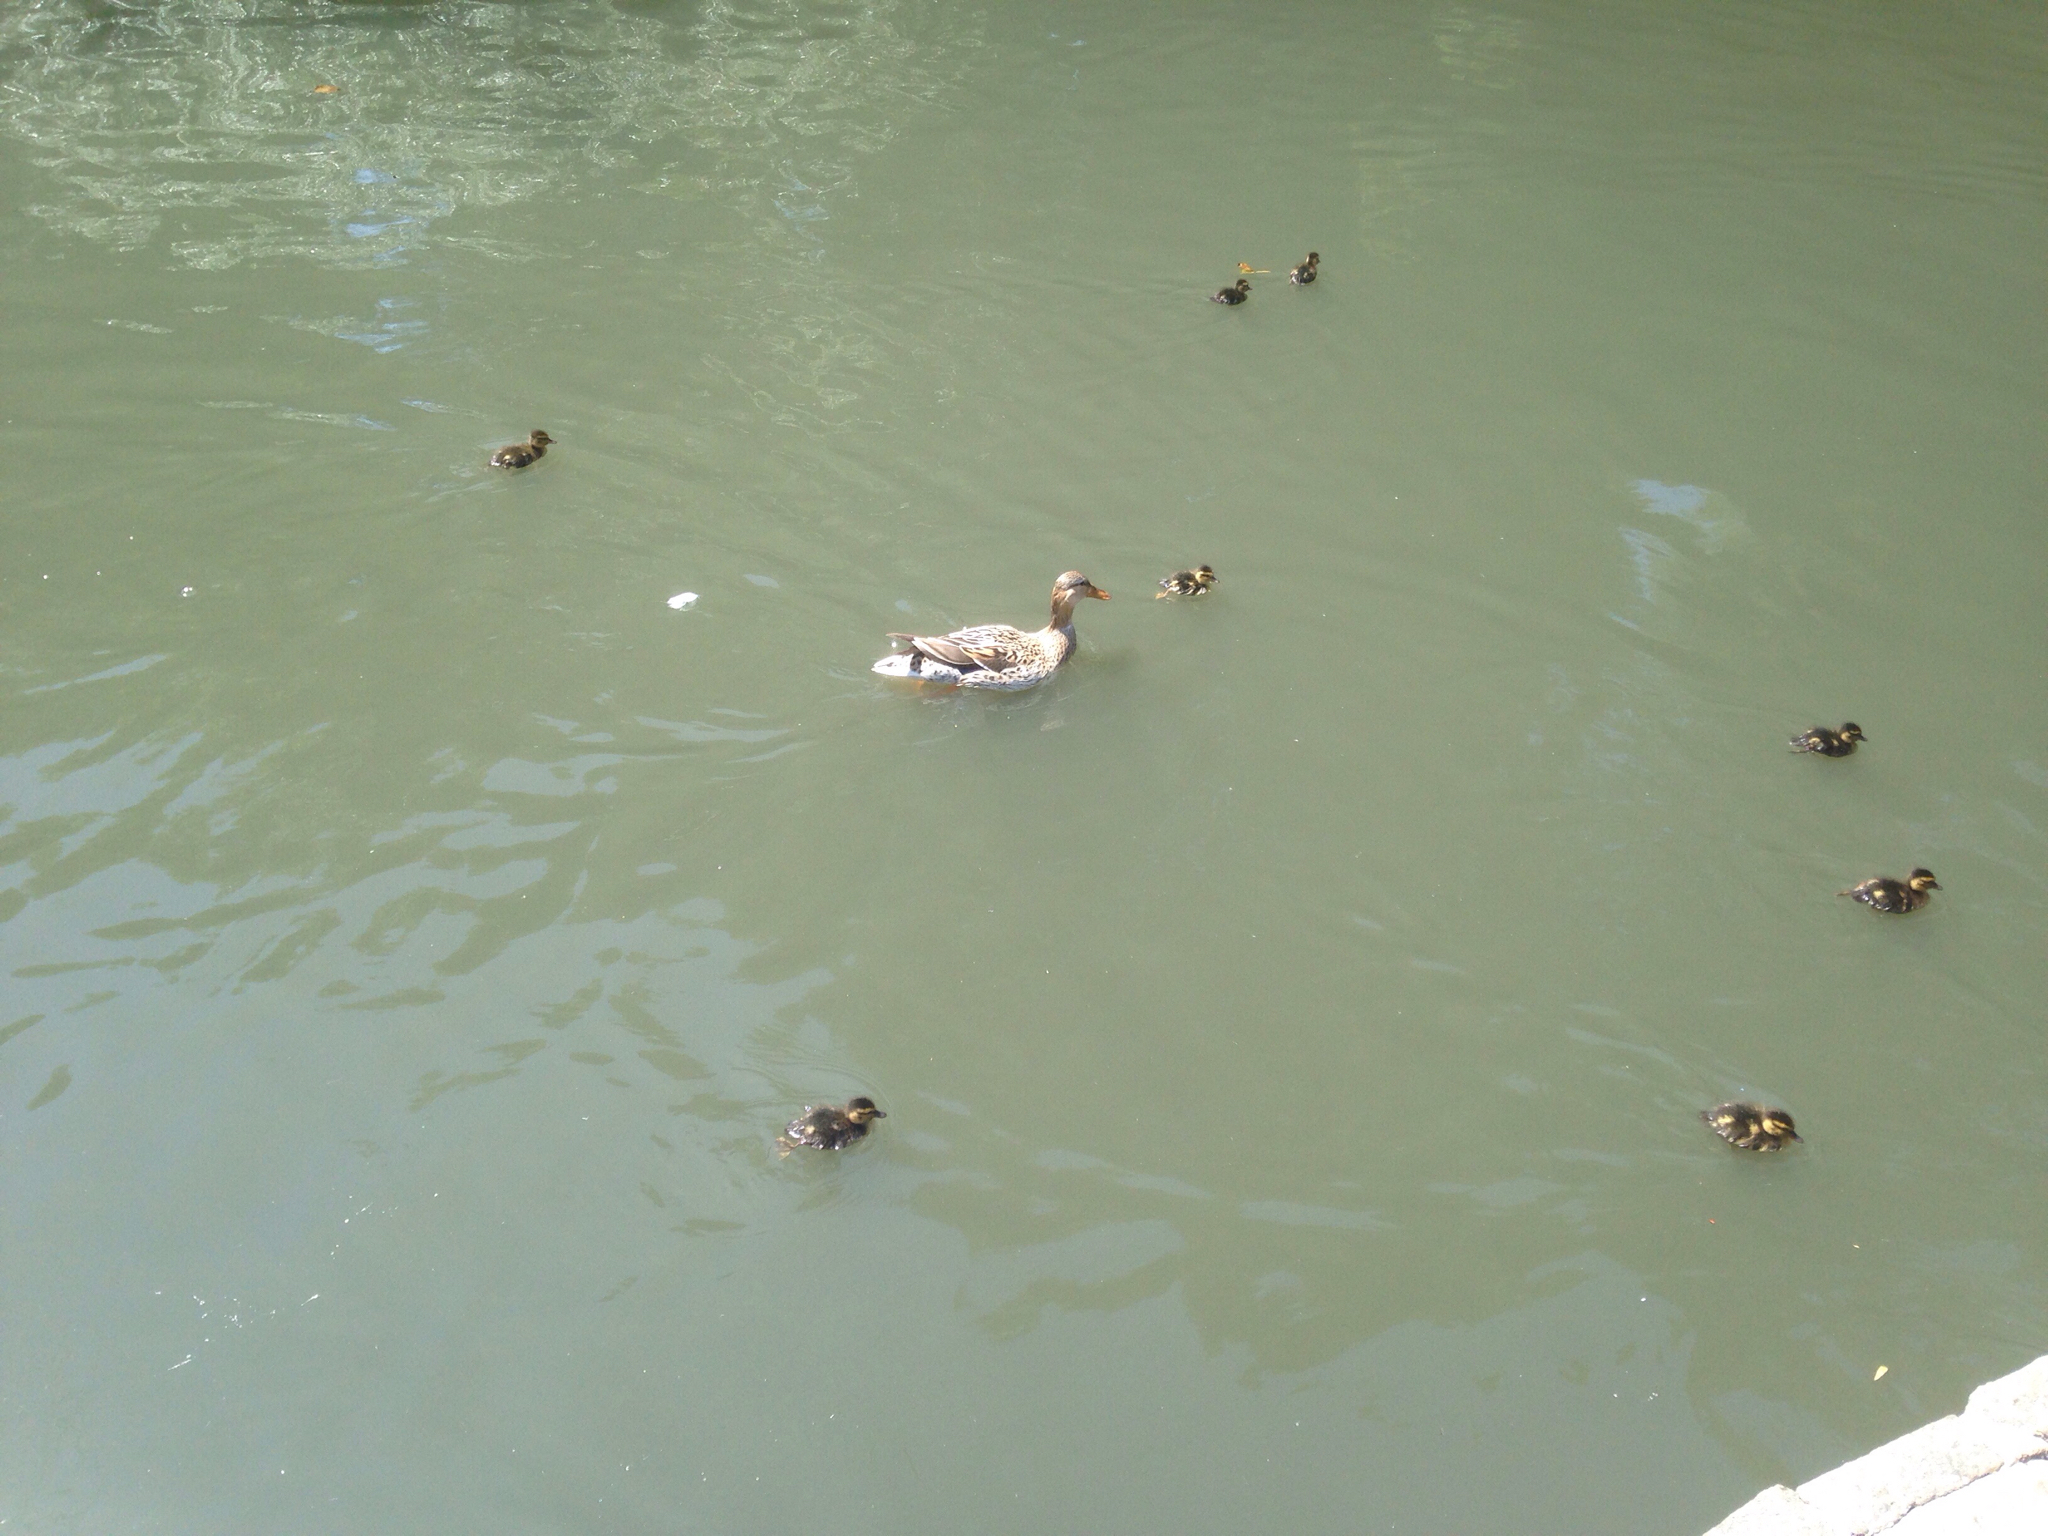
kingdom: Animalia
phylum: Chordata
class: Aves
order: Anseriformes
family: Anatidae
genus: Anas
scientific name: Anas platyrhynchos
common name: Mallard
